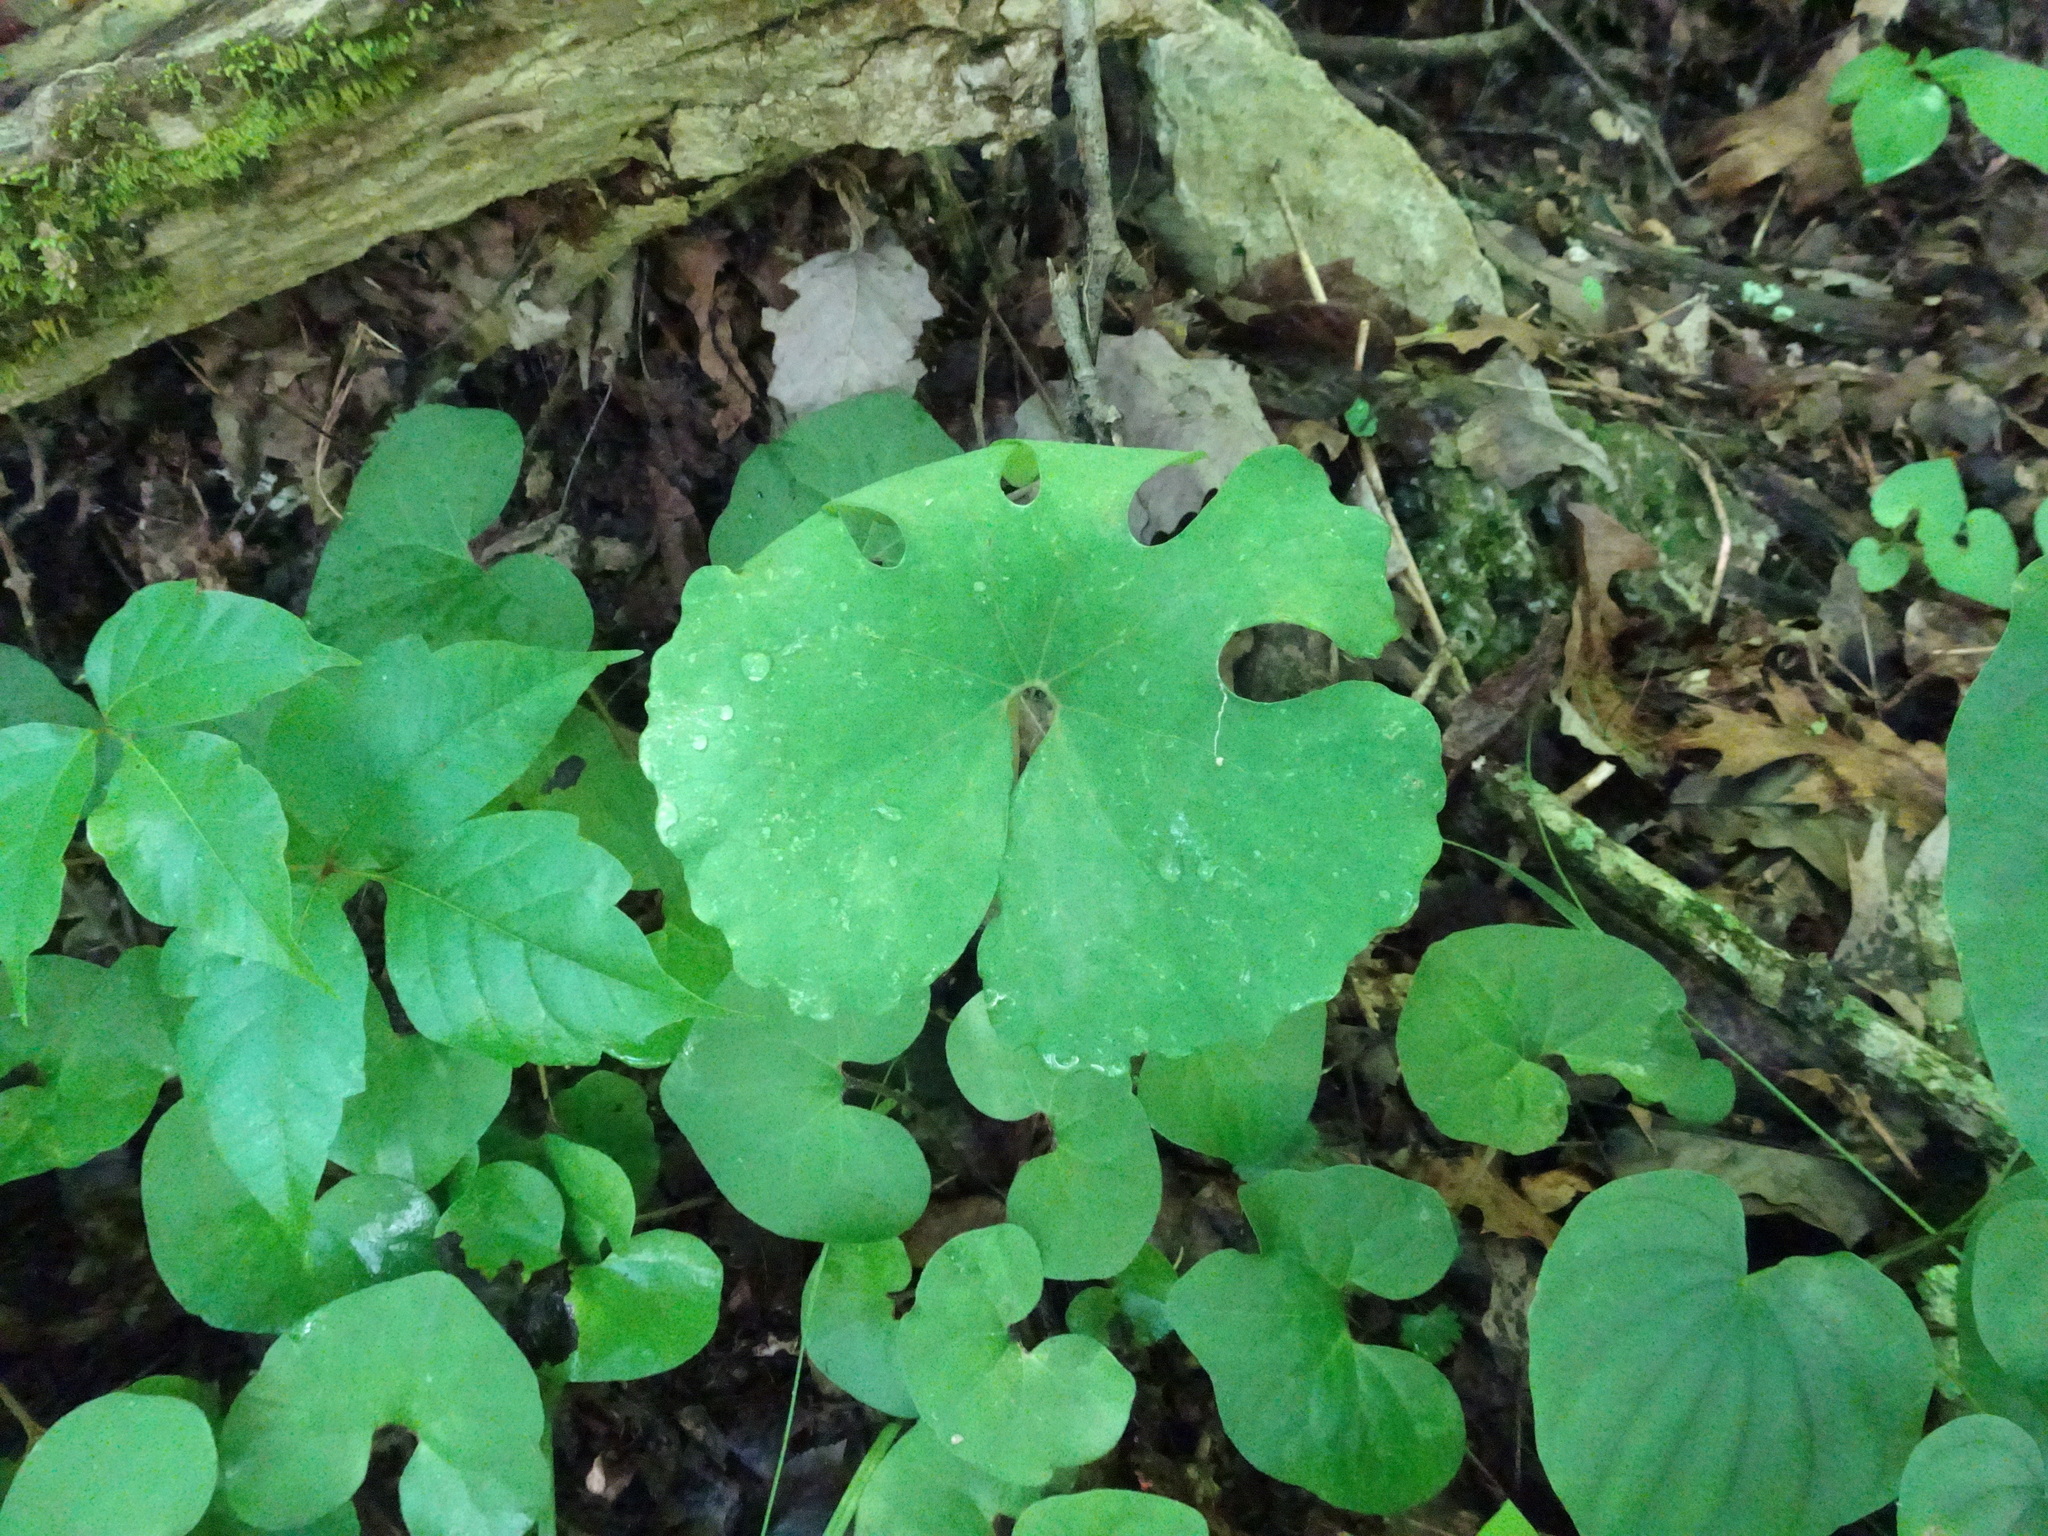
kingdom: Plantae
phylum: Tracheophyta
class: Magnoliopsida
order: Ranunculales
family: Papaveraceae
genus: Sanguinaria
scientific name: Sanguinaria canadensis
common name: Bloodroot
